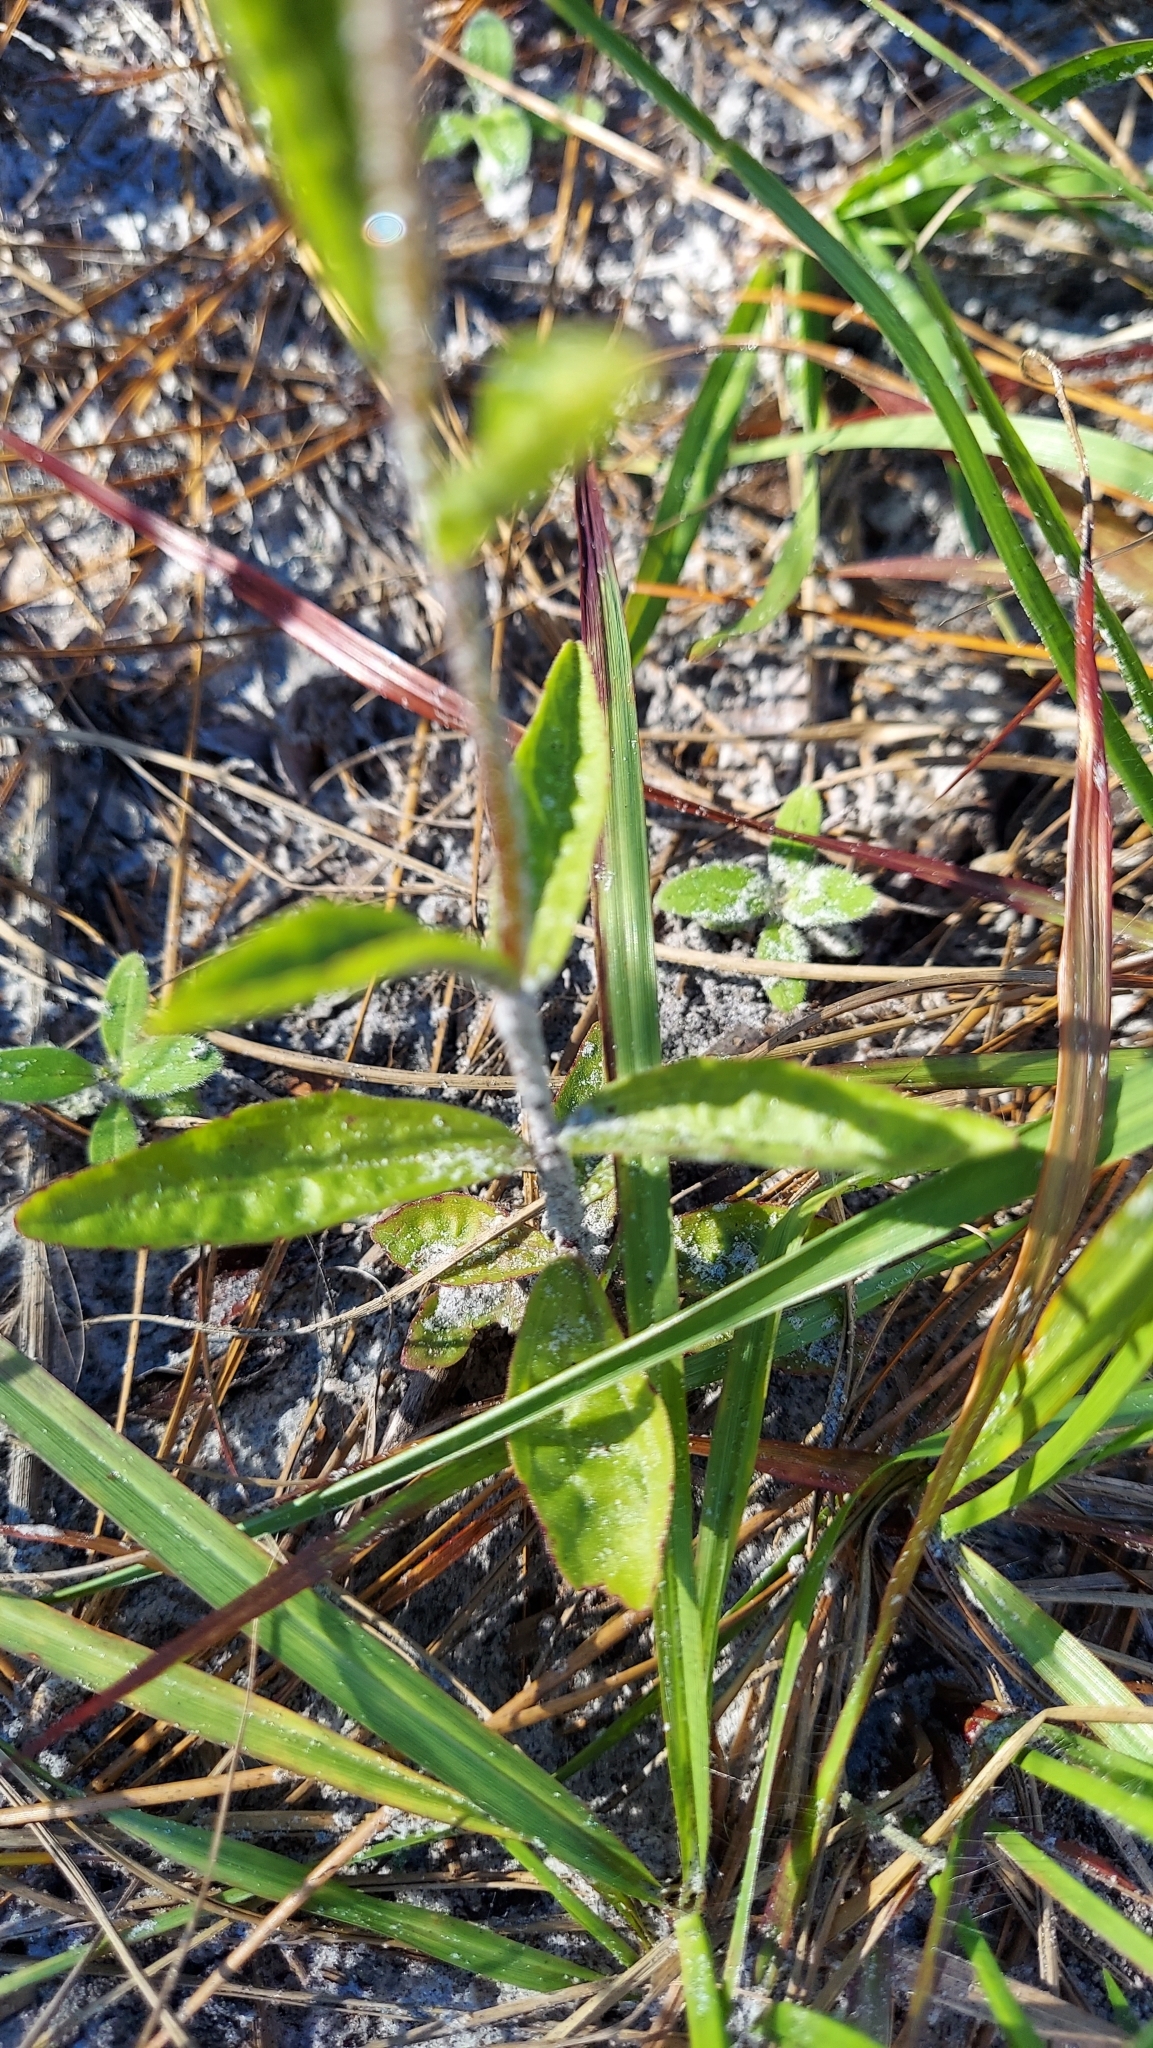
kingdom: Plantae
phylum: Tracheophyta
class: Magnoliopsida
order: Lamiales
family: Orobanchaceae
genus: Buchnera
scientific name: Buchnera floridana
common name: Florida bluehearts
